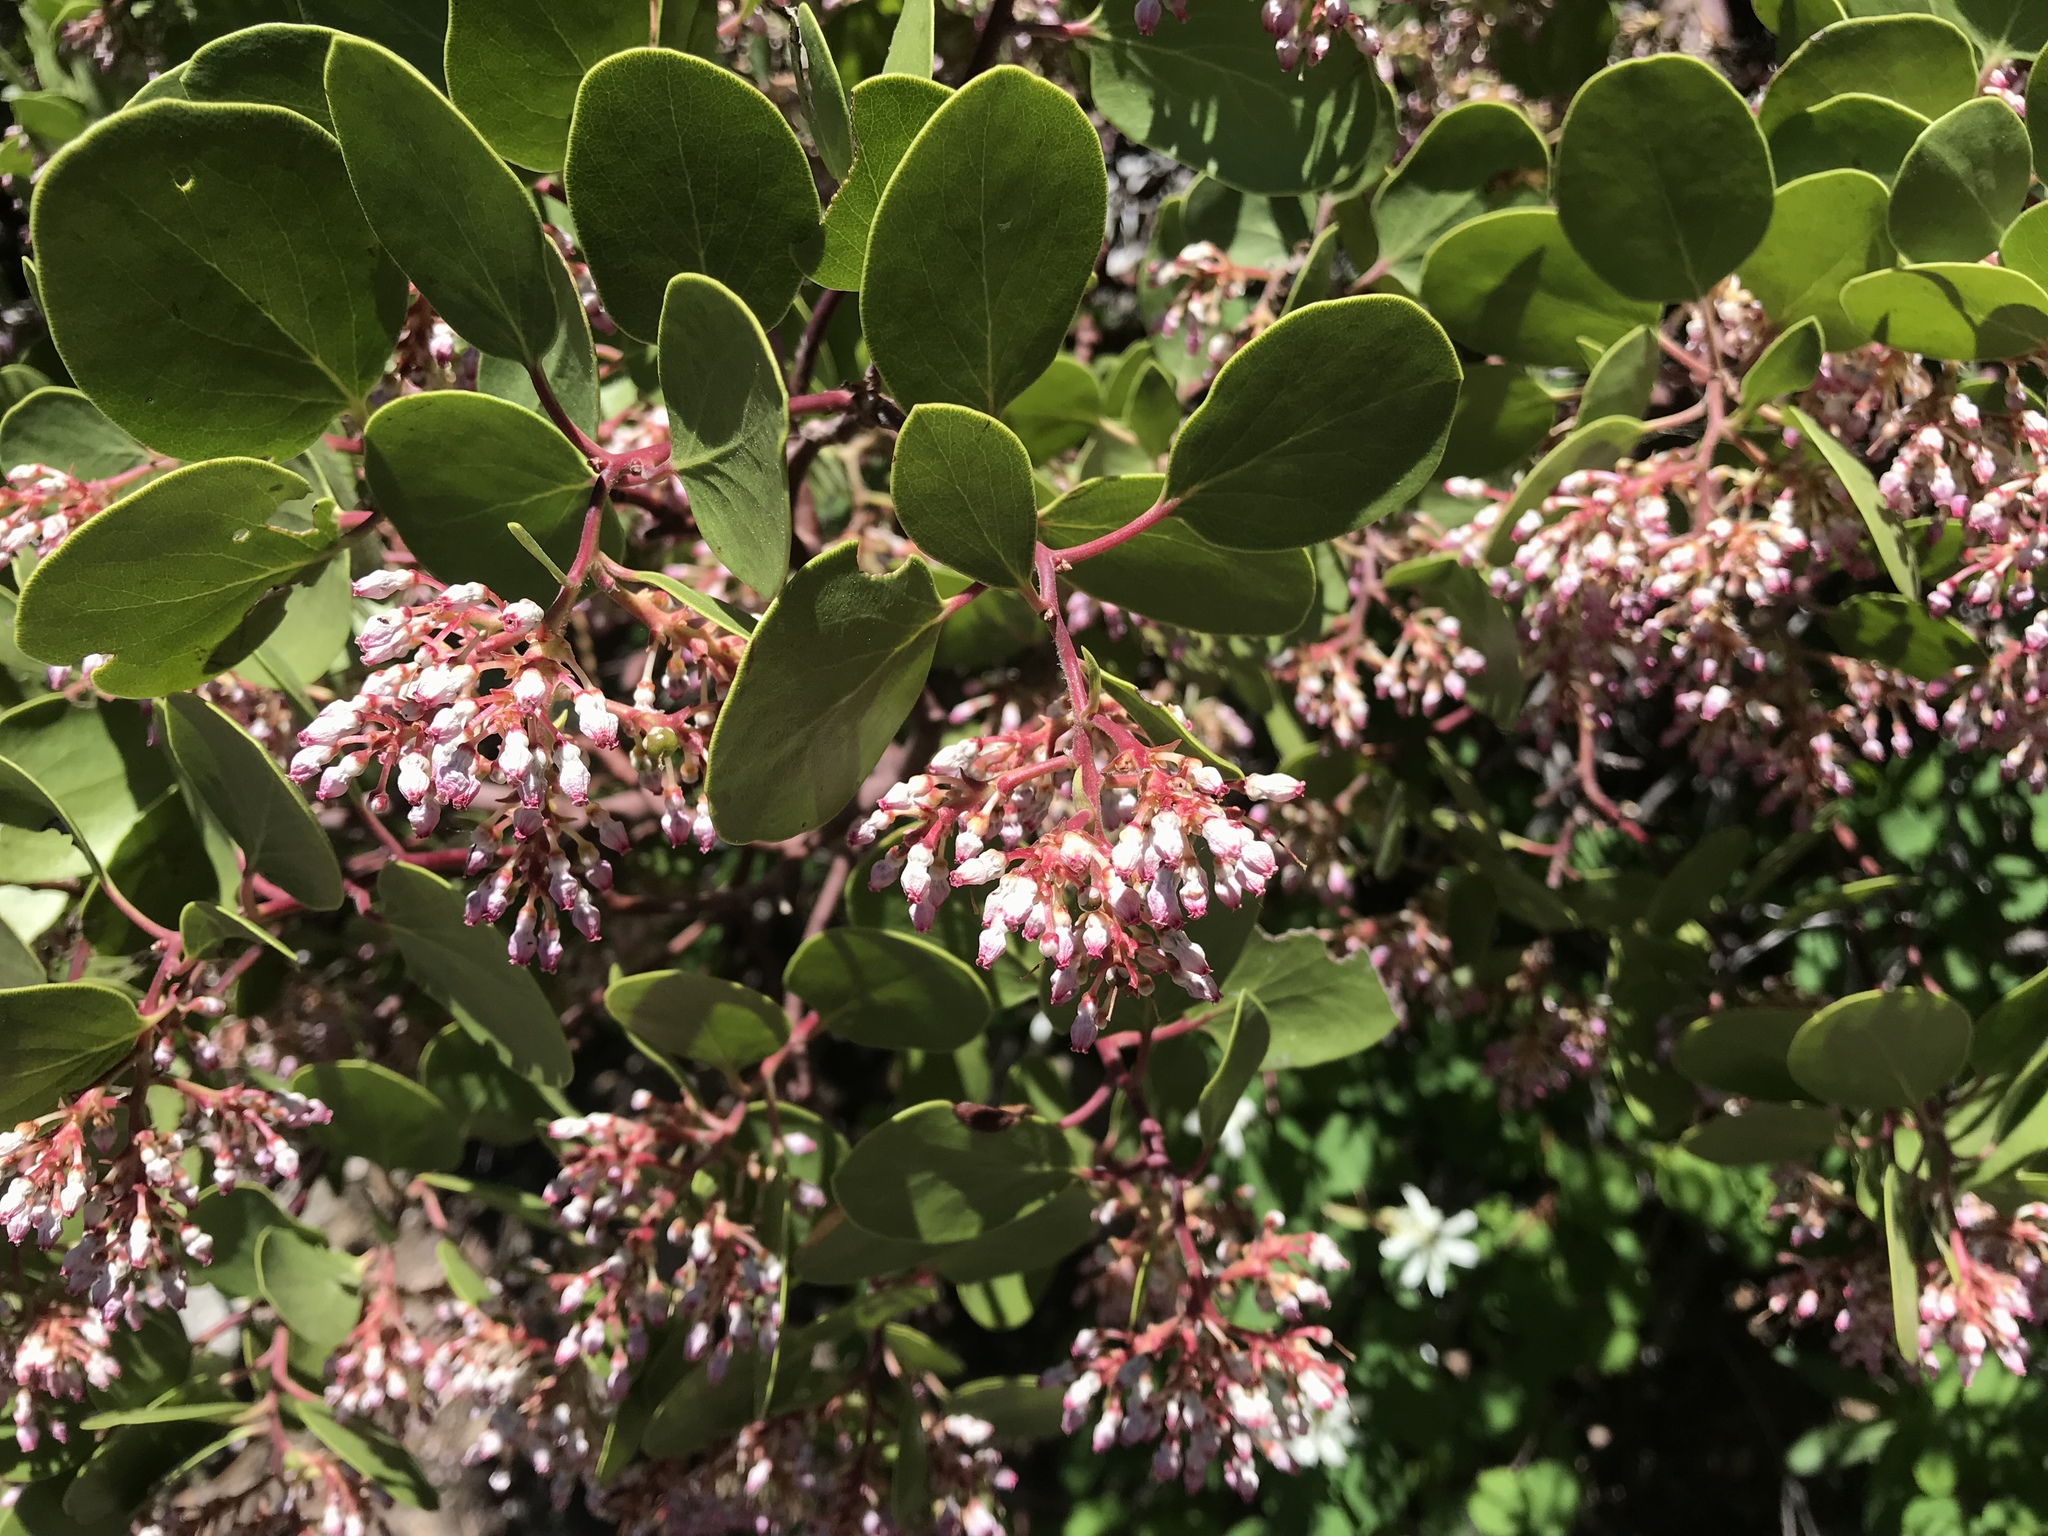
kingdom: Plantae
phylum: Tracheophyta
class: Magnoliopsida
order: Ericales
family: Ericaceae
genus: Arctostaphylos
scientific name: Arctostaphylos patula
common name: Green-leaf manzanita
